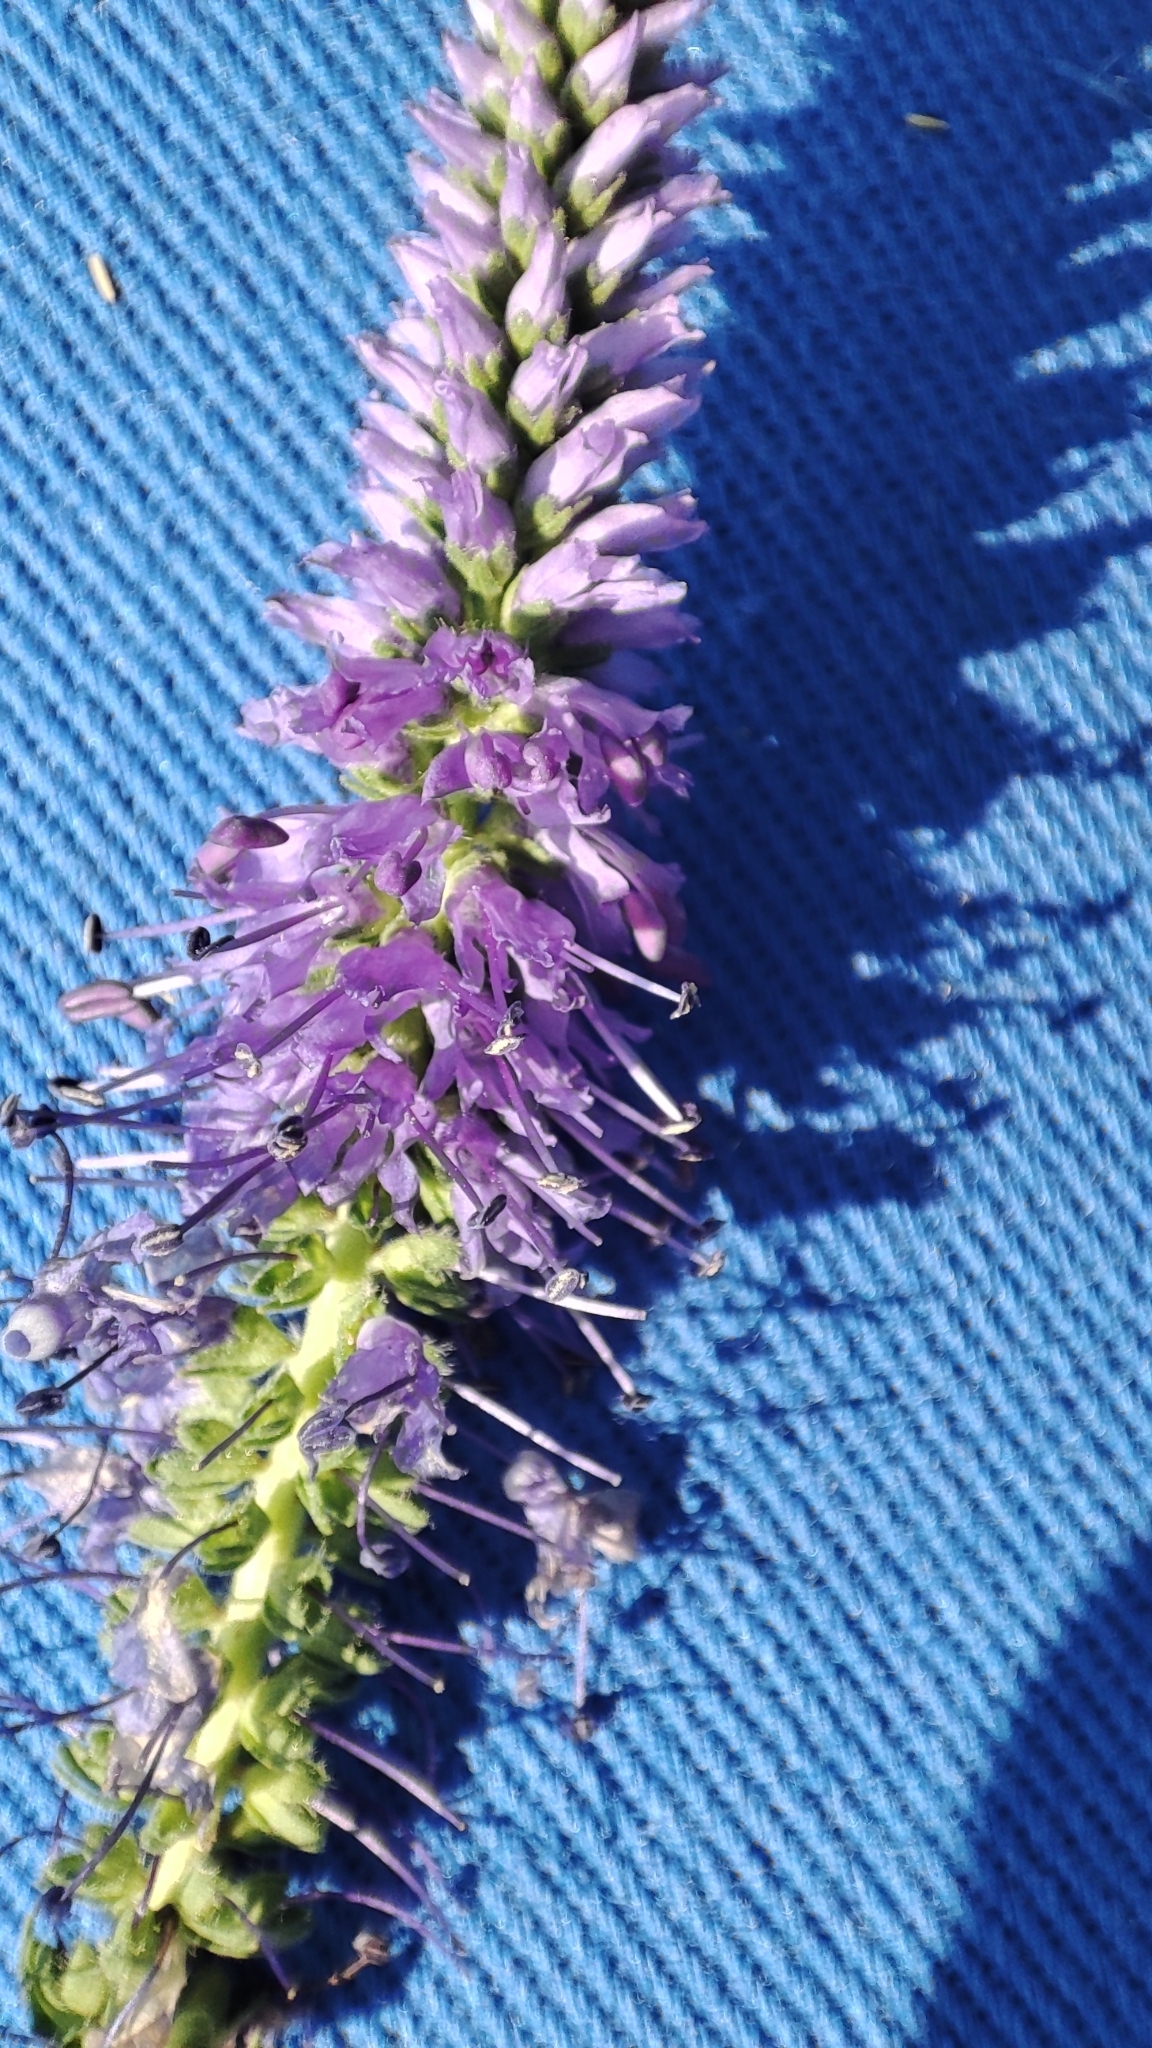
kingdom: Plantae
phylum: Tracheophyta
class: Magnoliopsida
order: Lamiales
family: Plantaginaceae
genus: Veronica
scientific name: Veronica spicata
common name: Spiked speedwell
